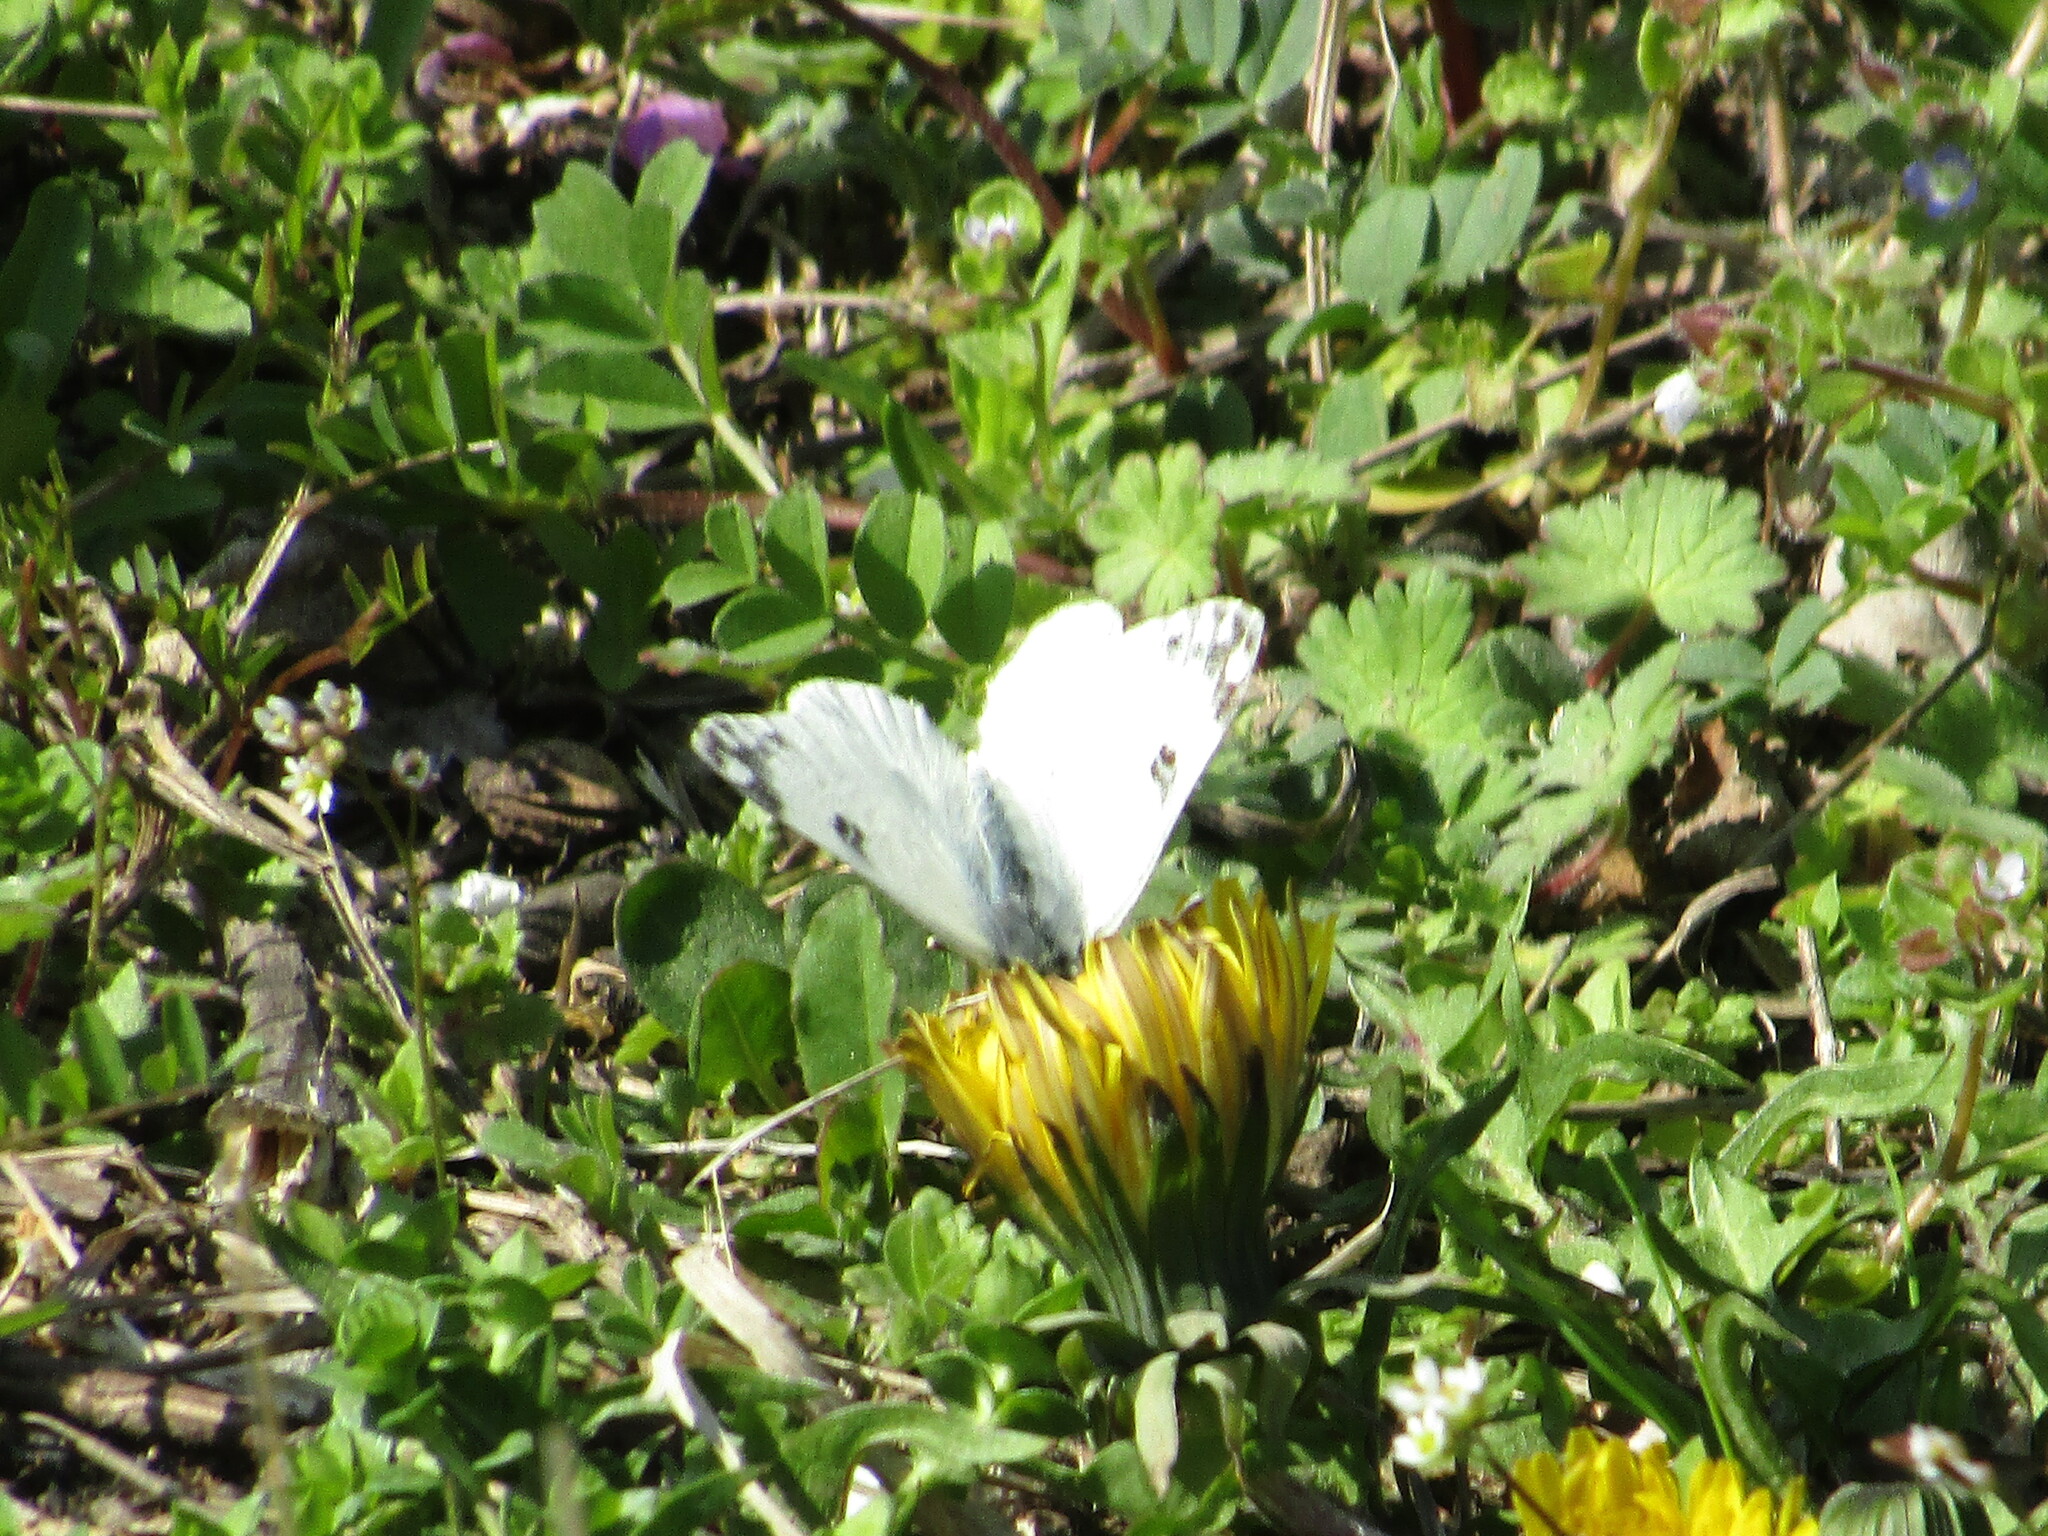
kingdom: Animalia
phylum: Arthropoda
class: Insecta
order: Lepidoptera
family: Pieridae
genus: Pontia
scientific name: Pontia edusa
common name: Eastern bath white
